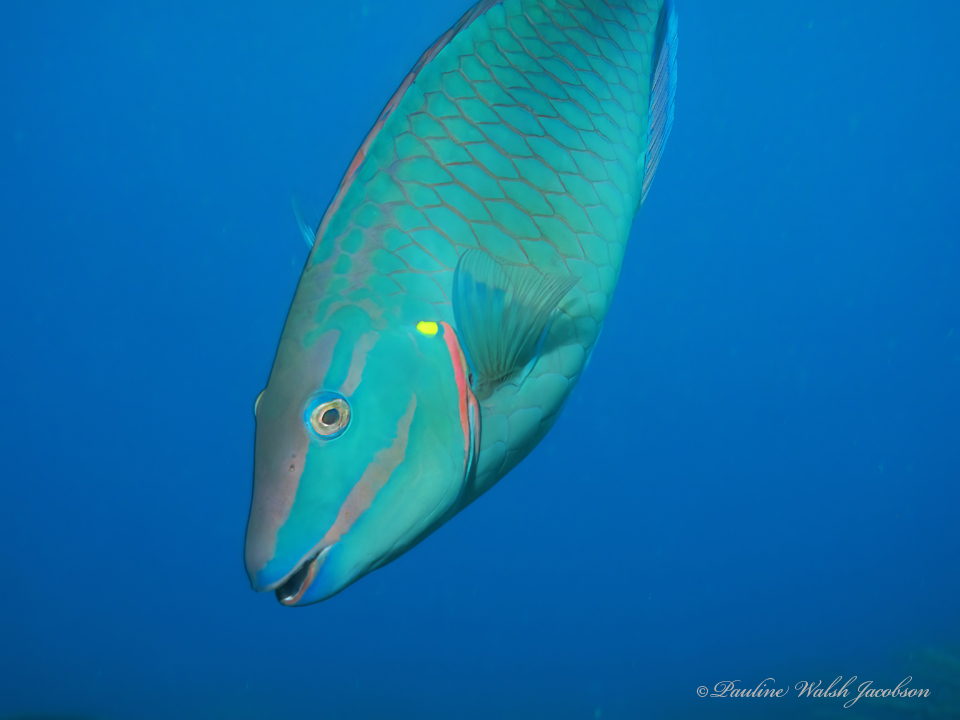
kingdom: Animalia
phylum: Chordata
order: Perciformes
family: Scaridae
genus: Sparisoma
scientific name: Sparisoma viride
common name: Stoplight parrotfish
